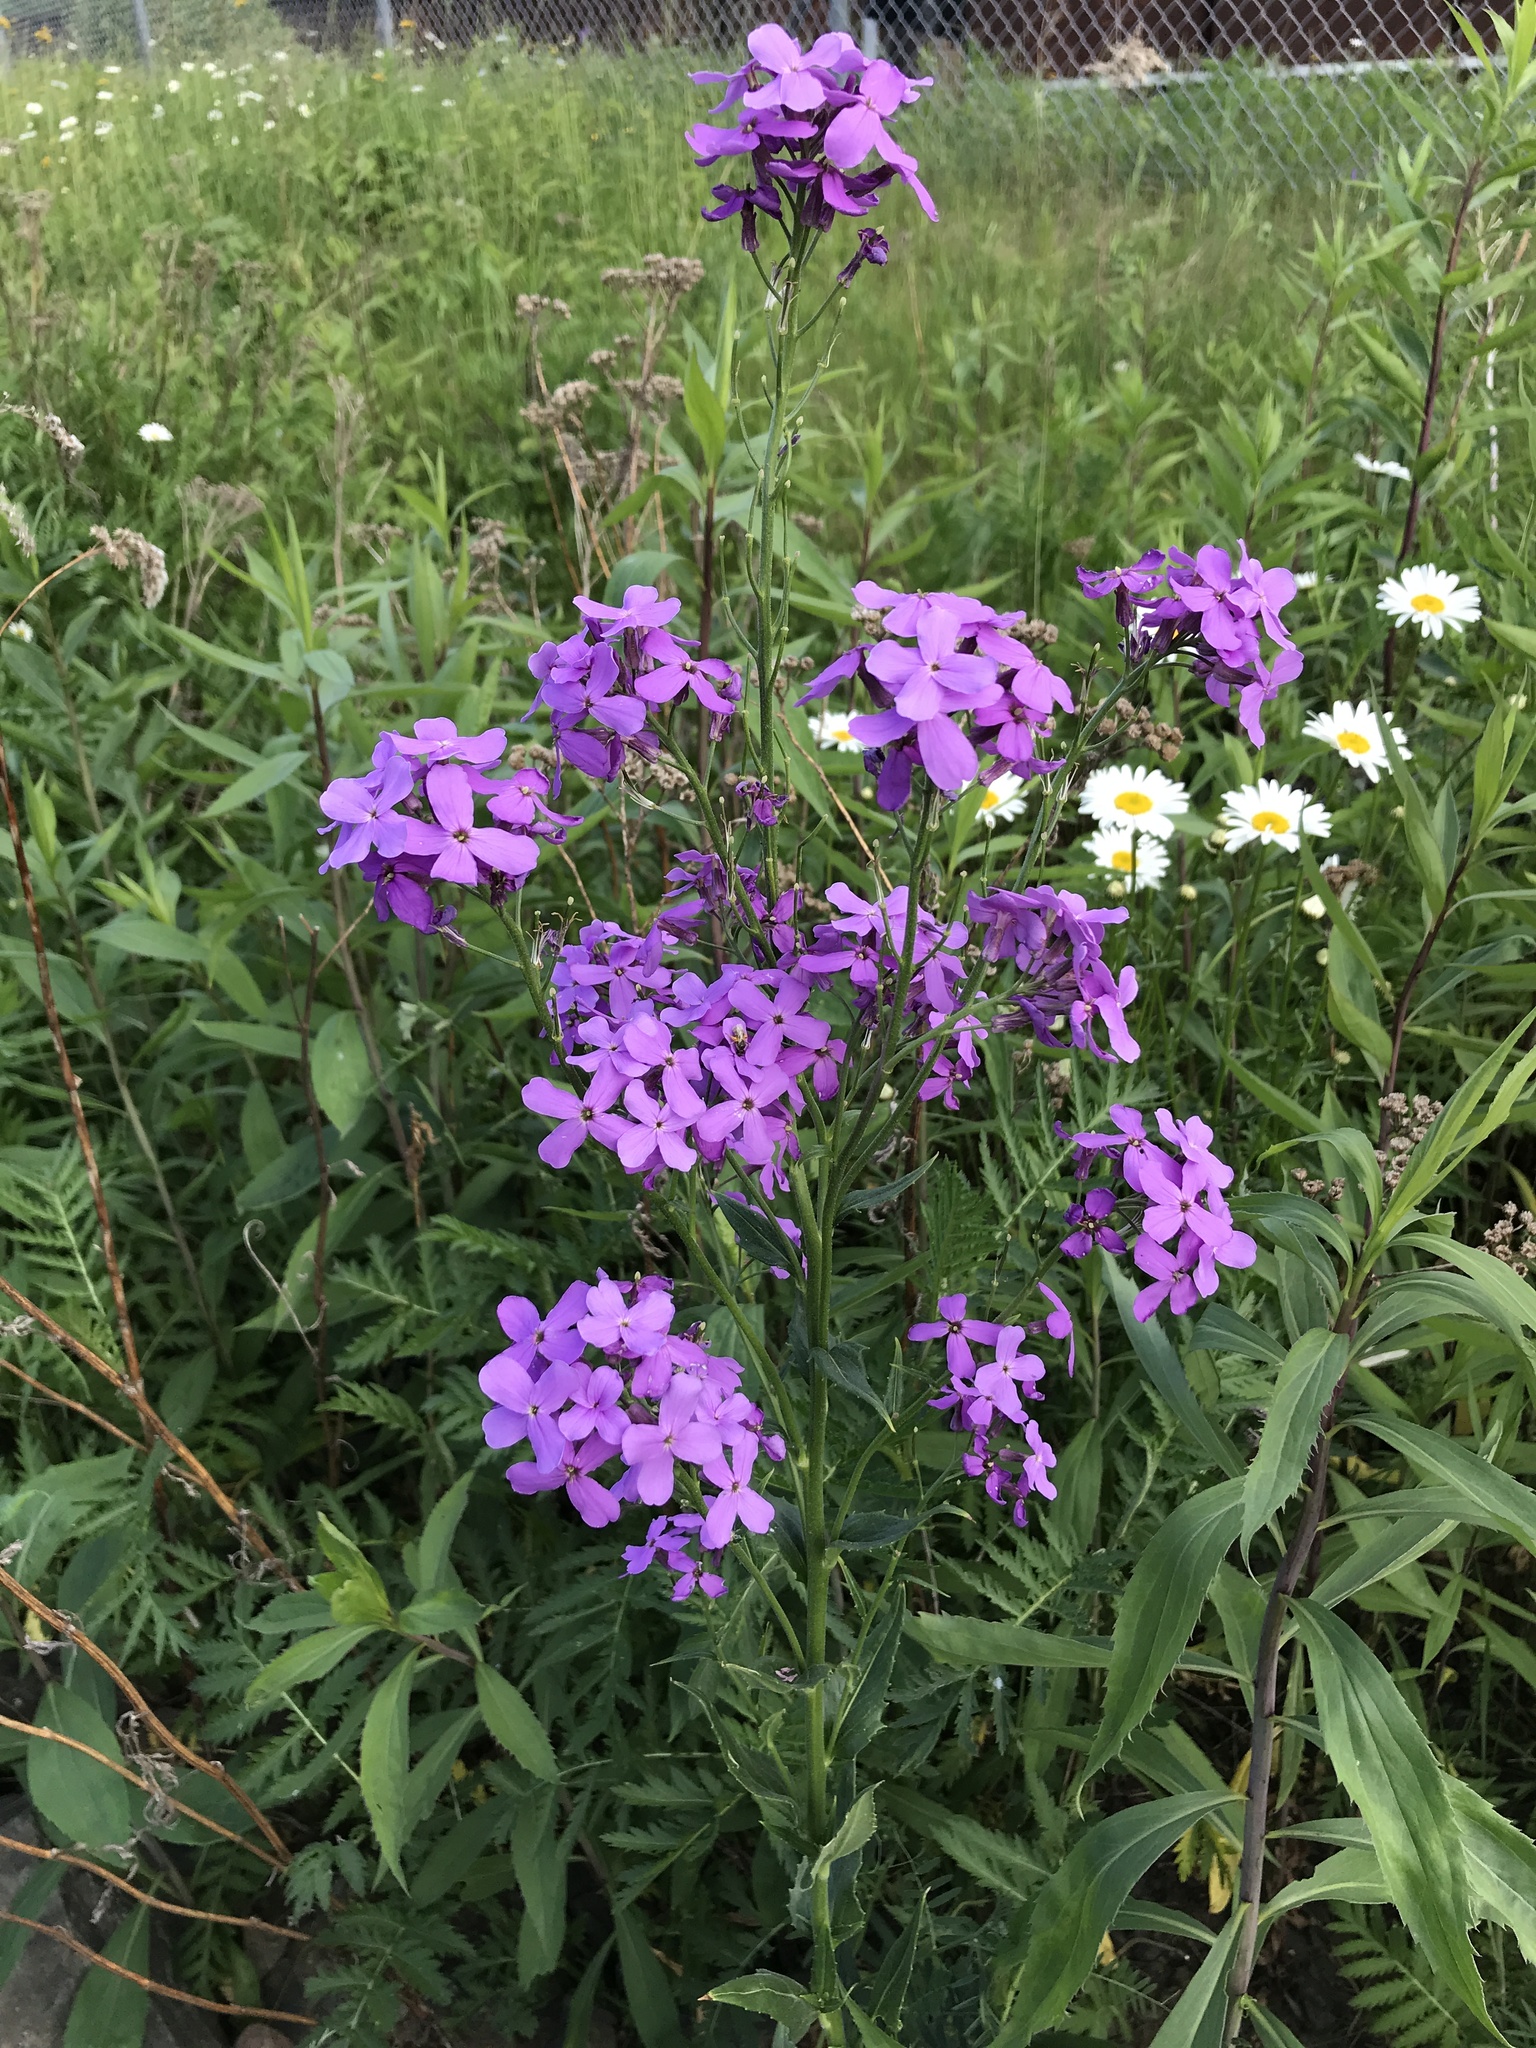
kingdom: Plantae
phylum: Tracheophyta
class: Magnoliopsida
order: Brassicales
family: Brassicaceae
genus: Hesperis
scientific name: Hesperis matronalis
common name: Dame's-violet
